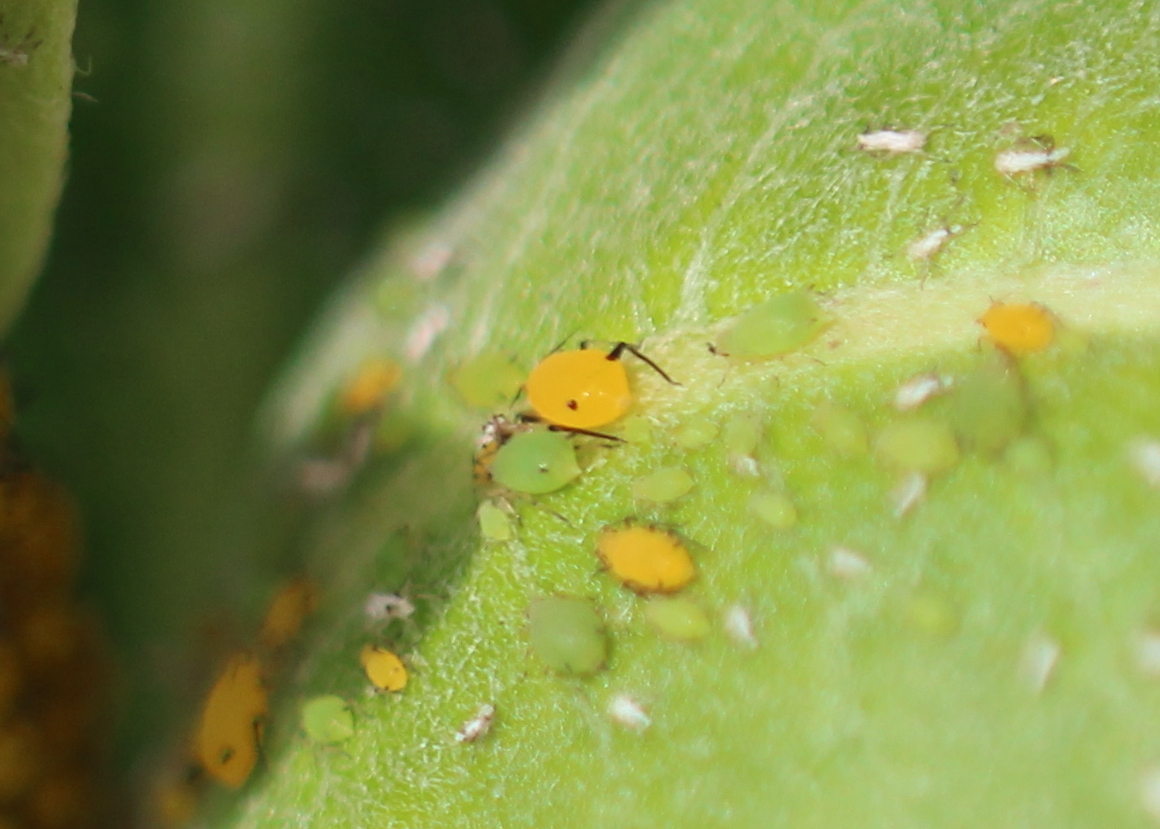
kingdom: Animalia
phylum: Arthropoda
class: Insecta
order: Hemiptera
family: Aphididae
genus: Aphis
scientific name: Aphis spiraecola
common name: Spirea aphid
